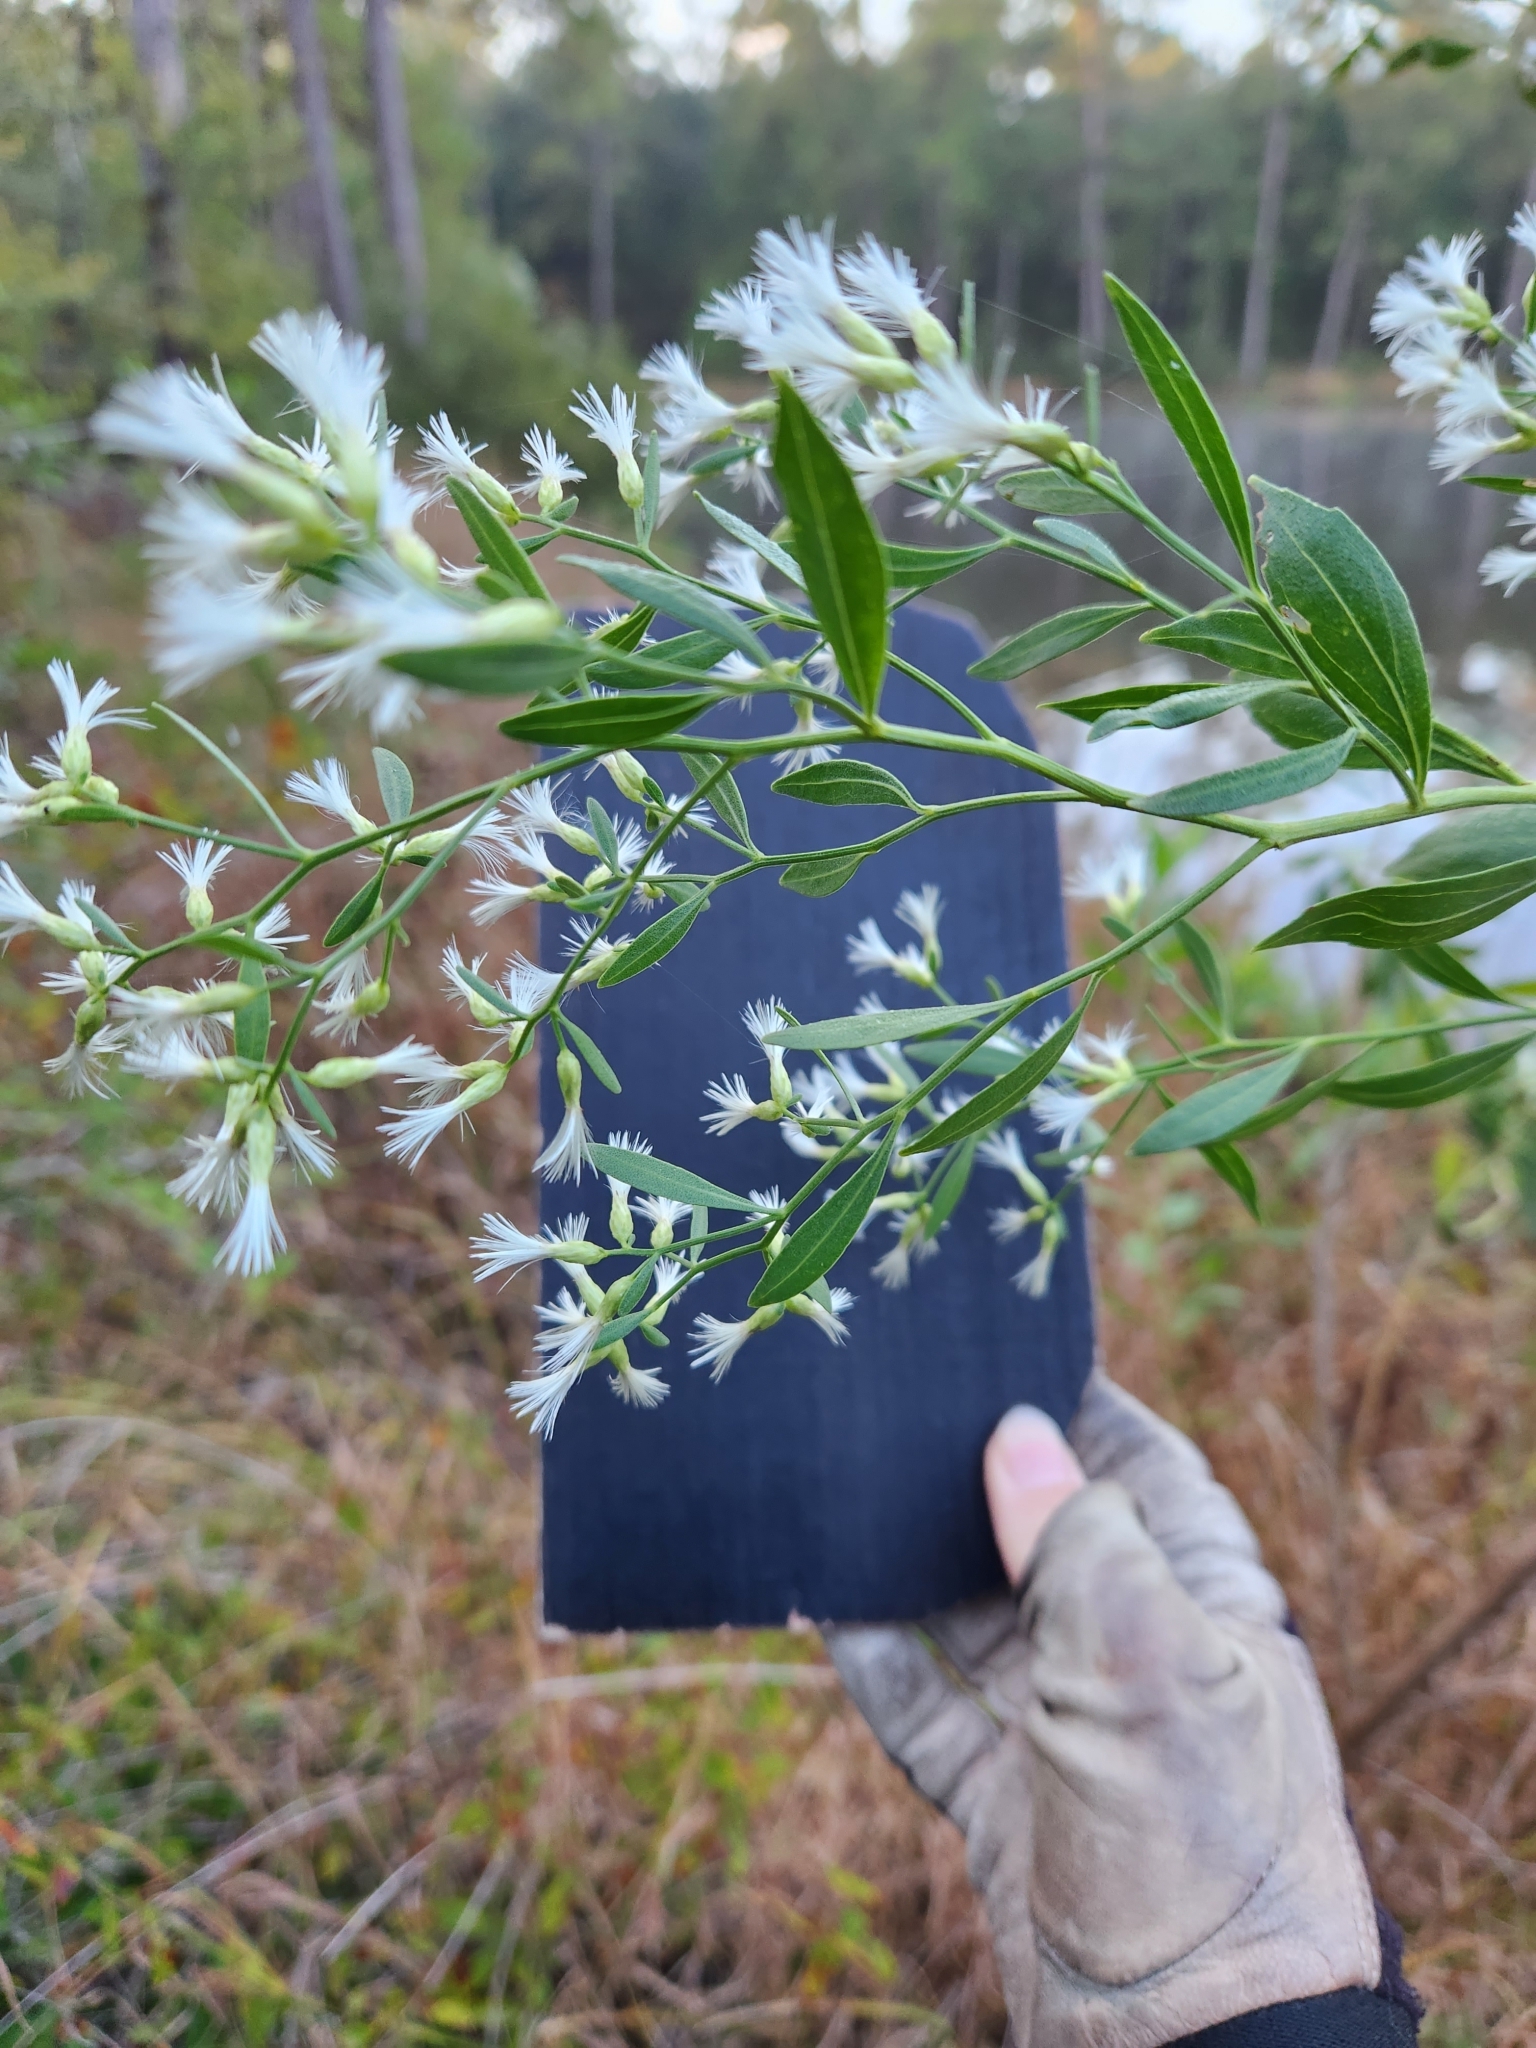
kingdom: Plantae
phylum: Tracheophyta
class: Magnoliopsida
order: Asterales
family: Asteraceae
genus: Baccharis
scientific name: Baccharis halimifolia
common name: Eastern baccharis
